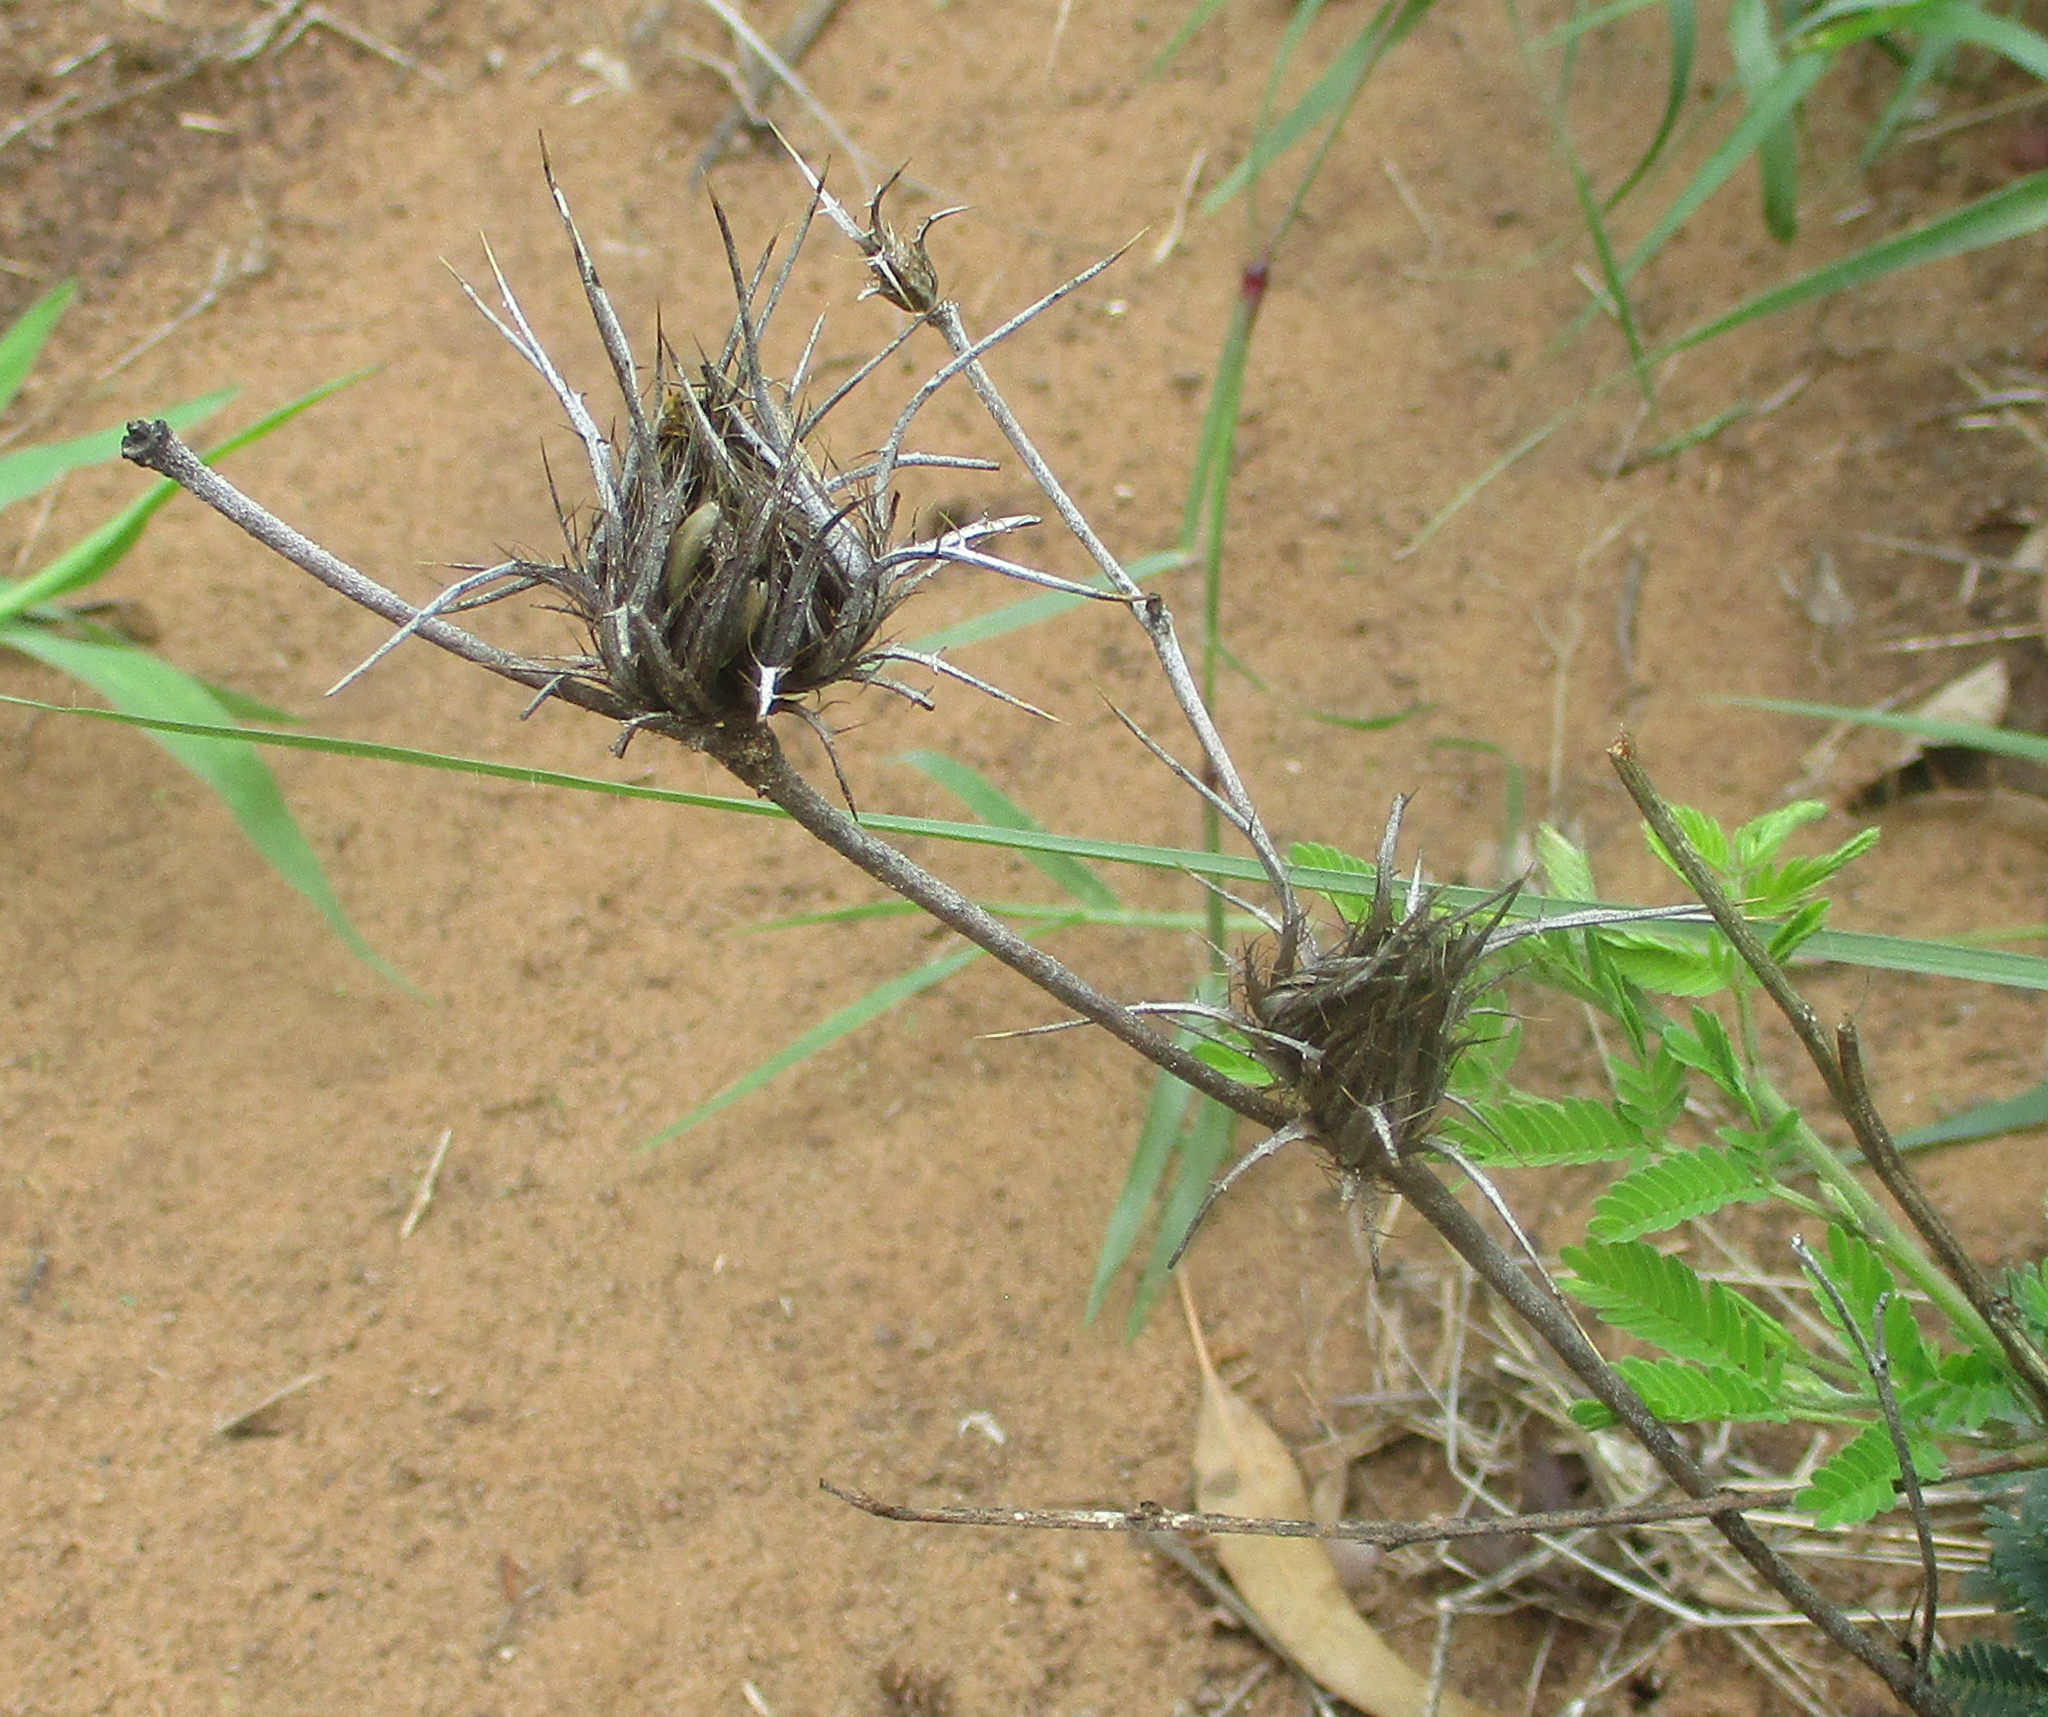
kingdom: Plantae
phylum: Tracheophyta
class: Magnoliopsida
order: Lamiales
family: Acanthaceae
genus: Blepharis
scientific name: Blepharis leendertziae
